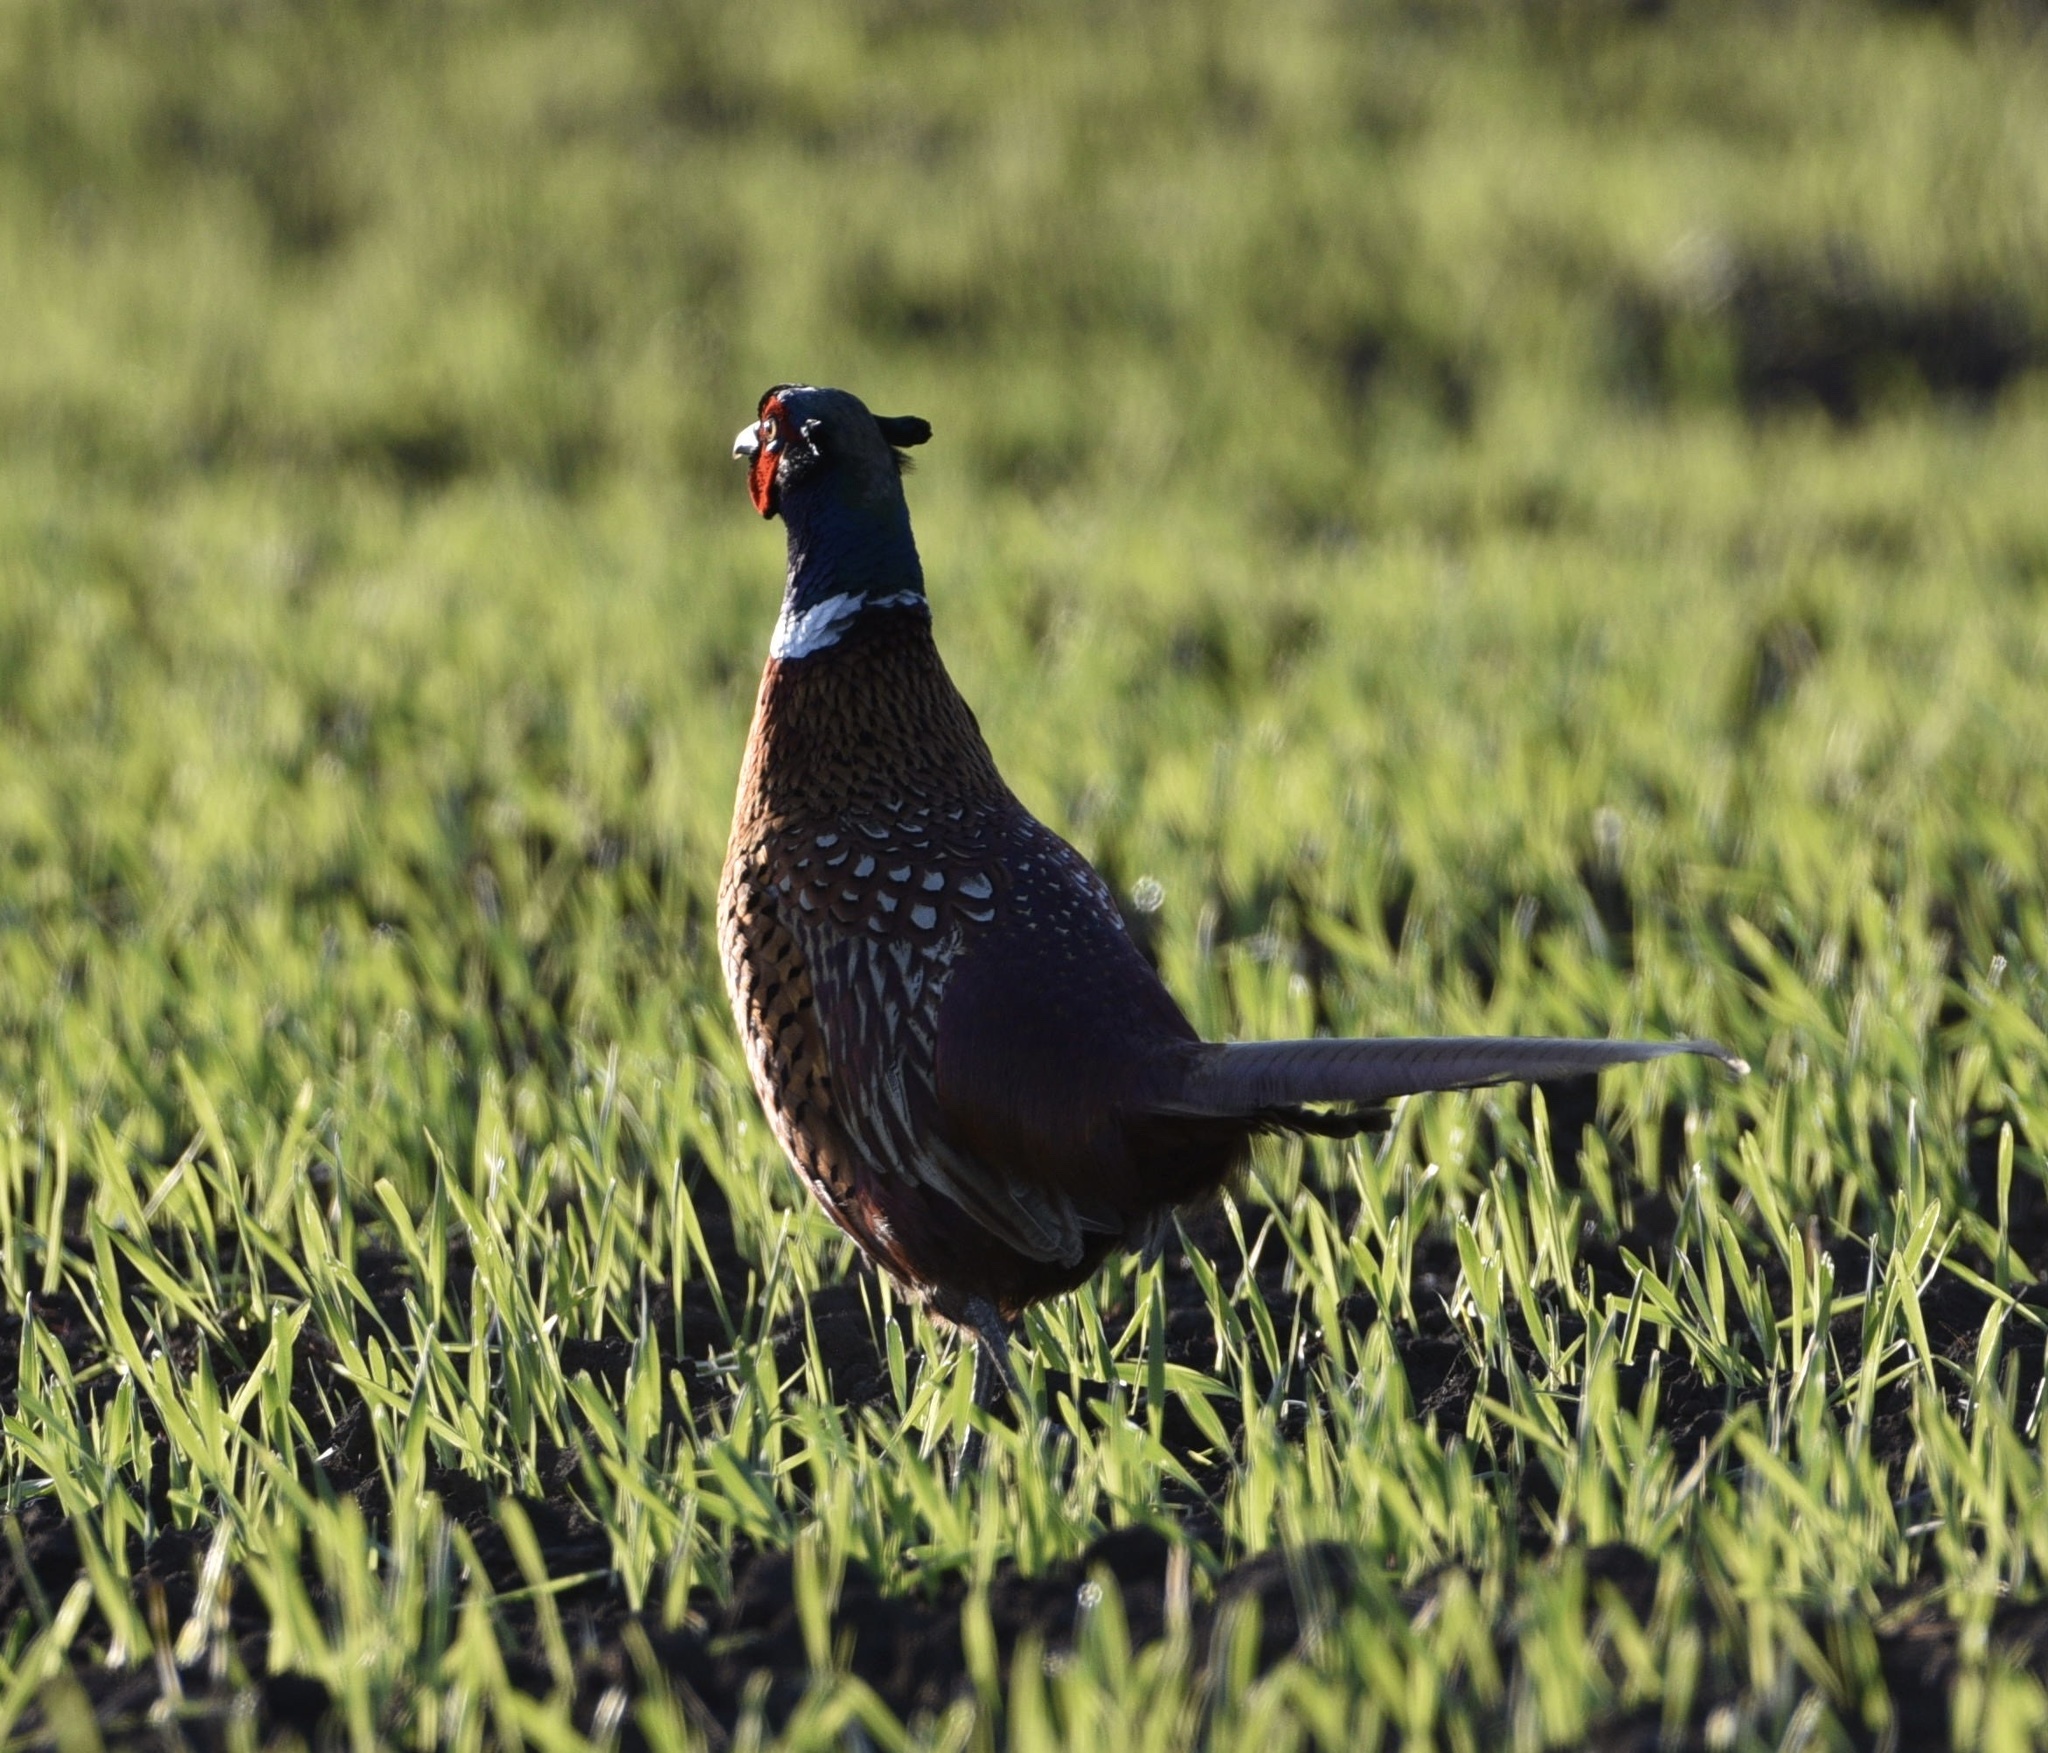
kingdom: Animalia
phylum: Chordata
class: Aves
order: Galliformes
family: Phasianidae
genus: Phasianus
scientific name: Phasianus colchicus
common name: Common pheasant
